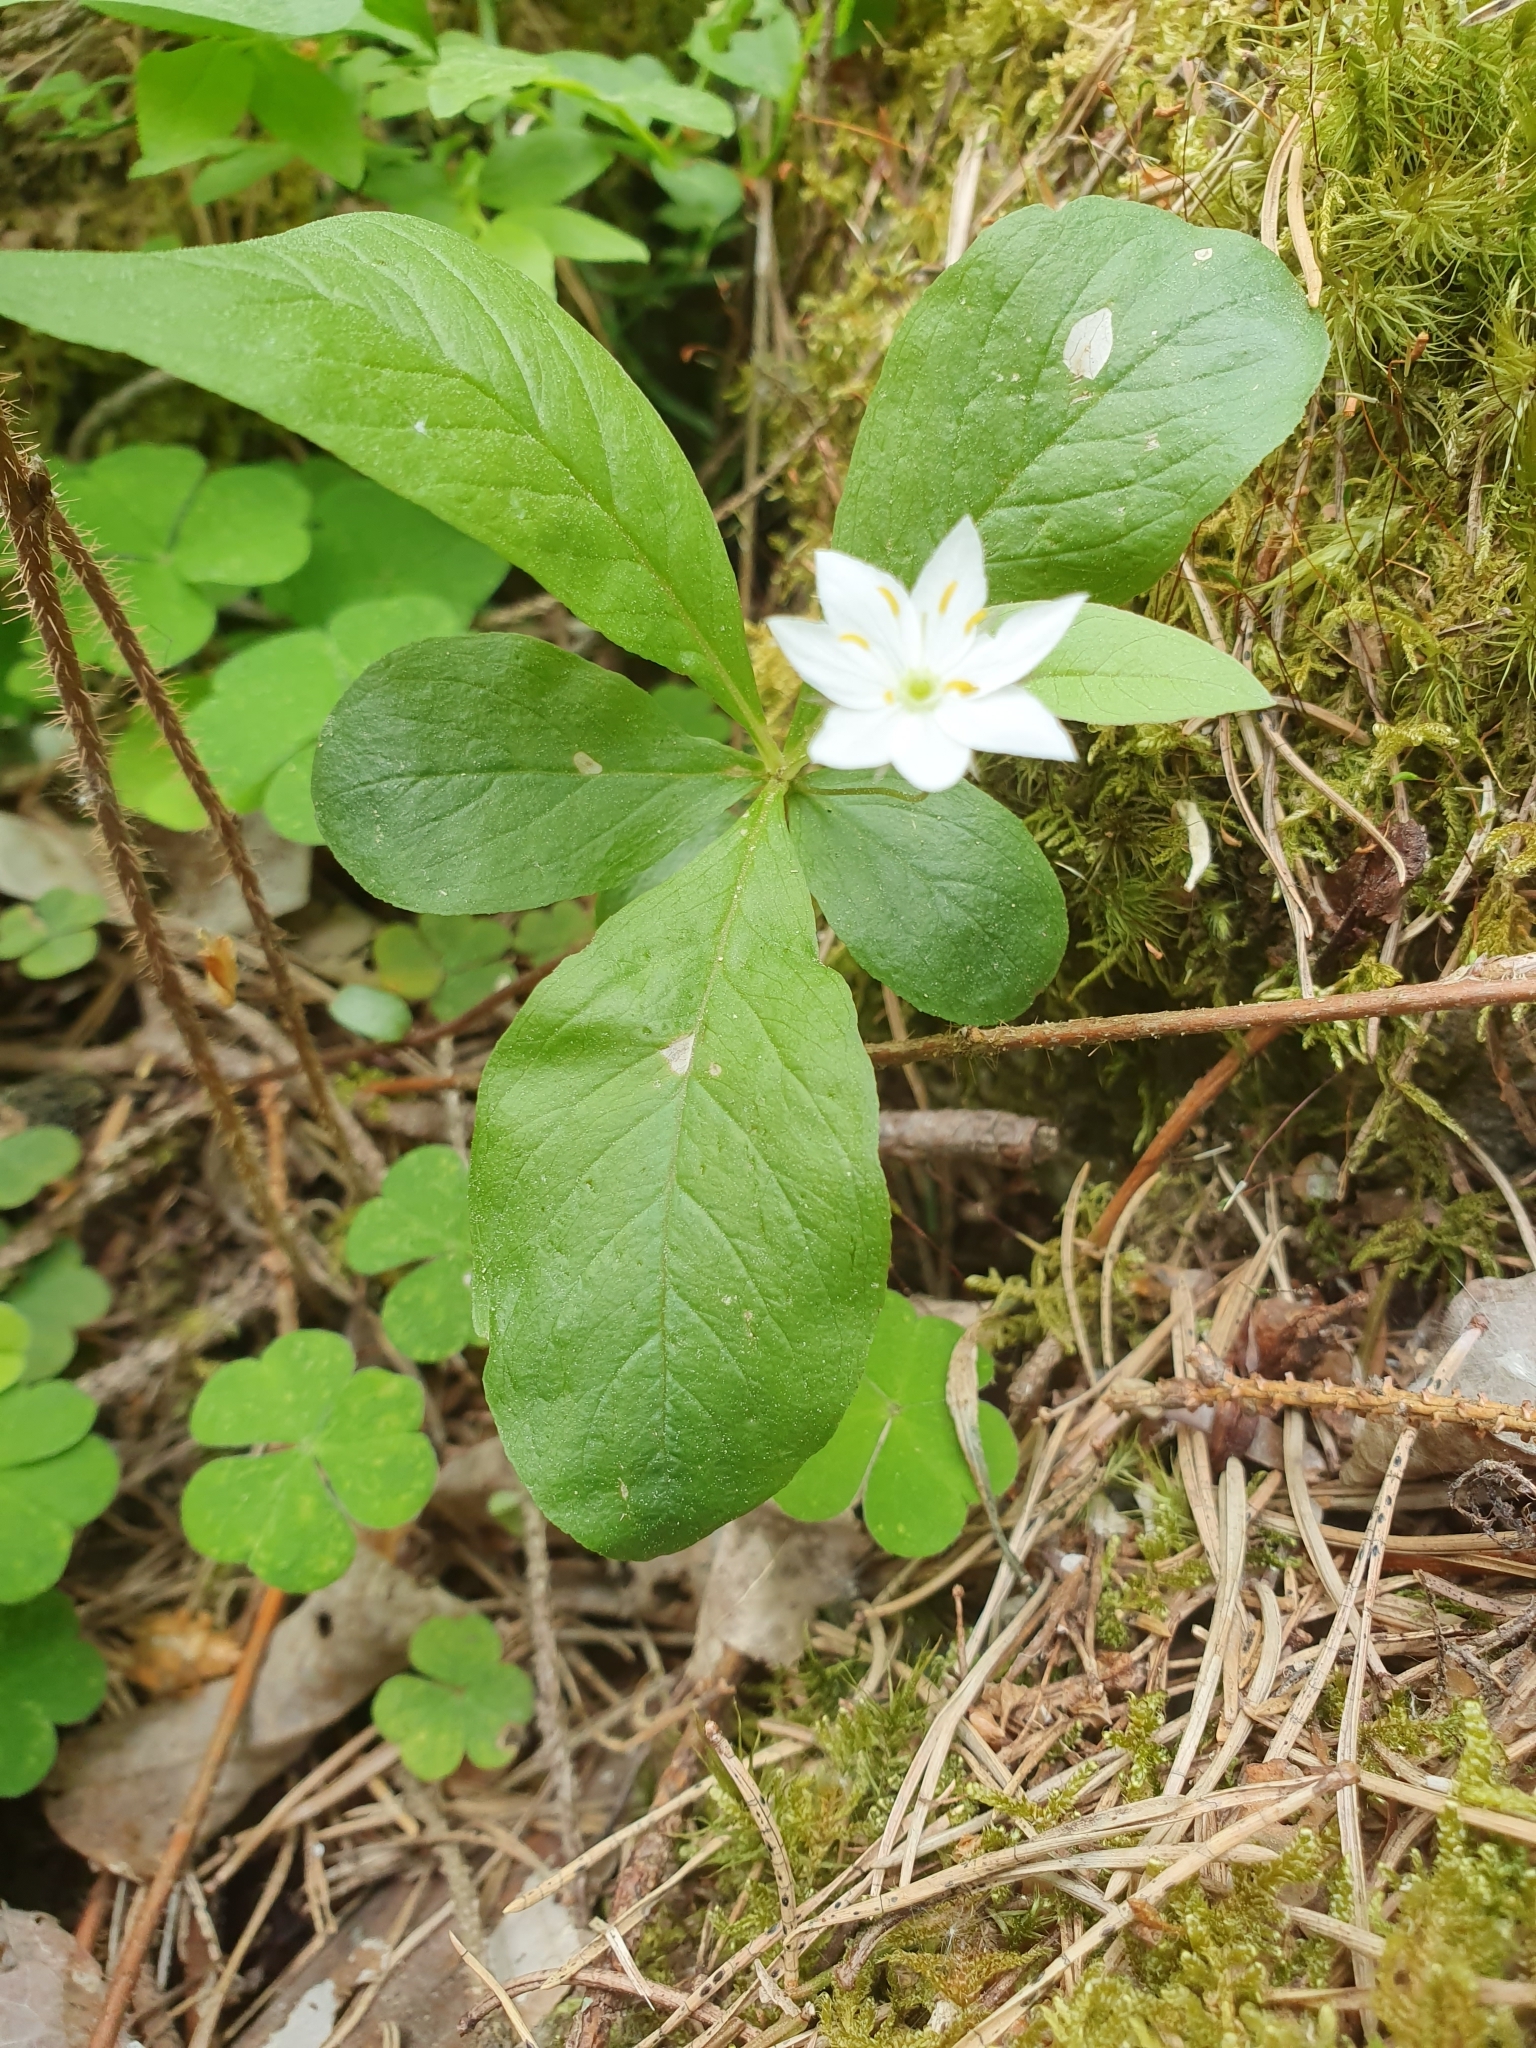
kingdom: Plantae
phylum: Tracheophyta
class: Magnoliopsida
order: Ericales
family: Primulaceae
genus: Lysimachia
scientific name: Lysimachia europaea
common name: Arctic starflower
